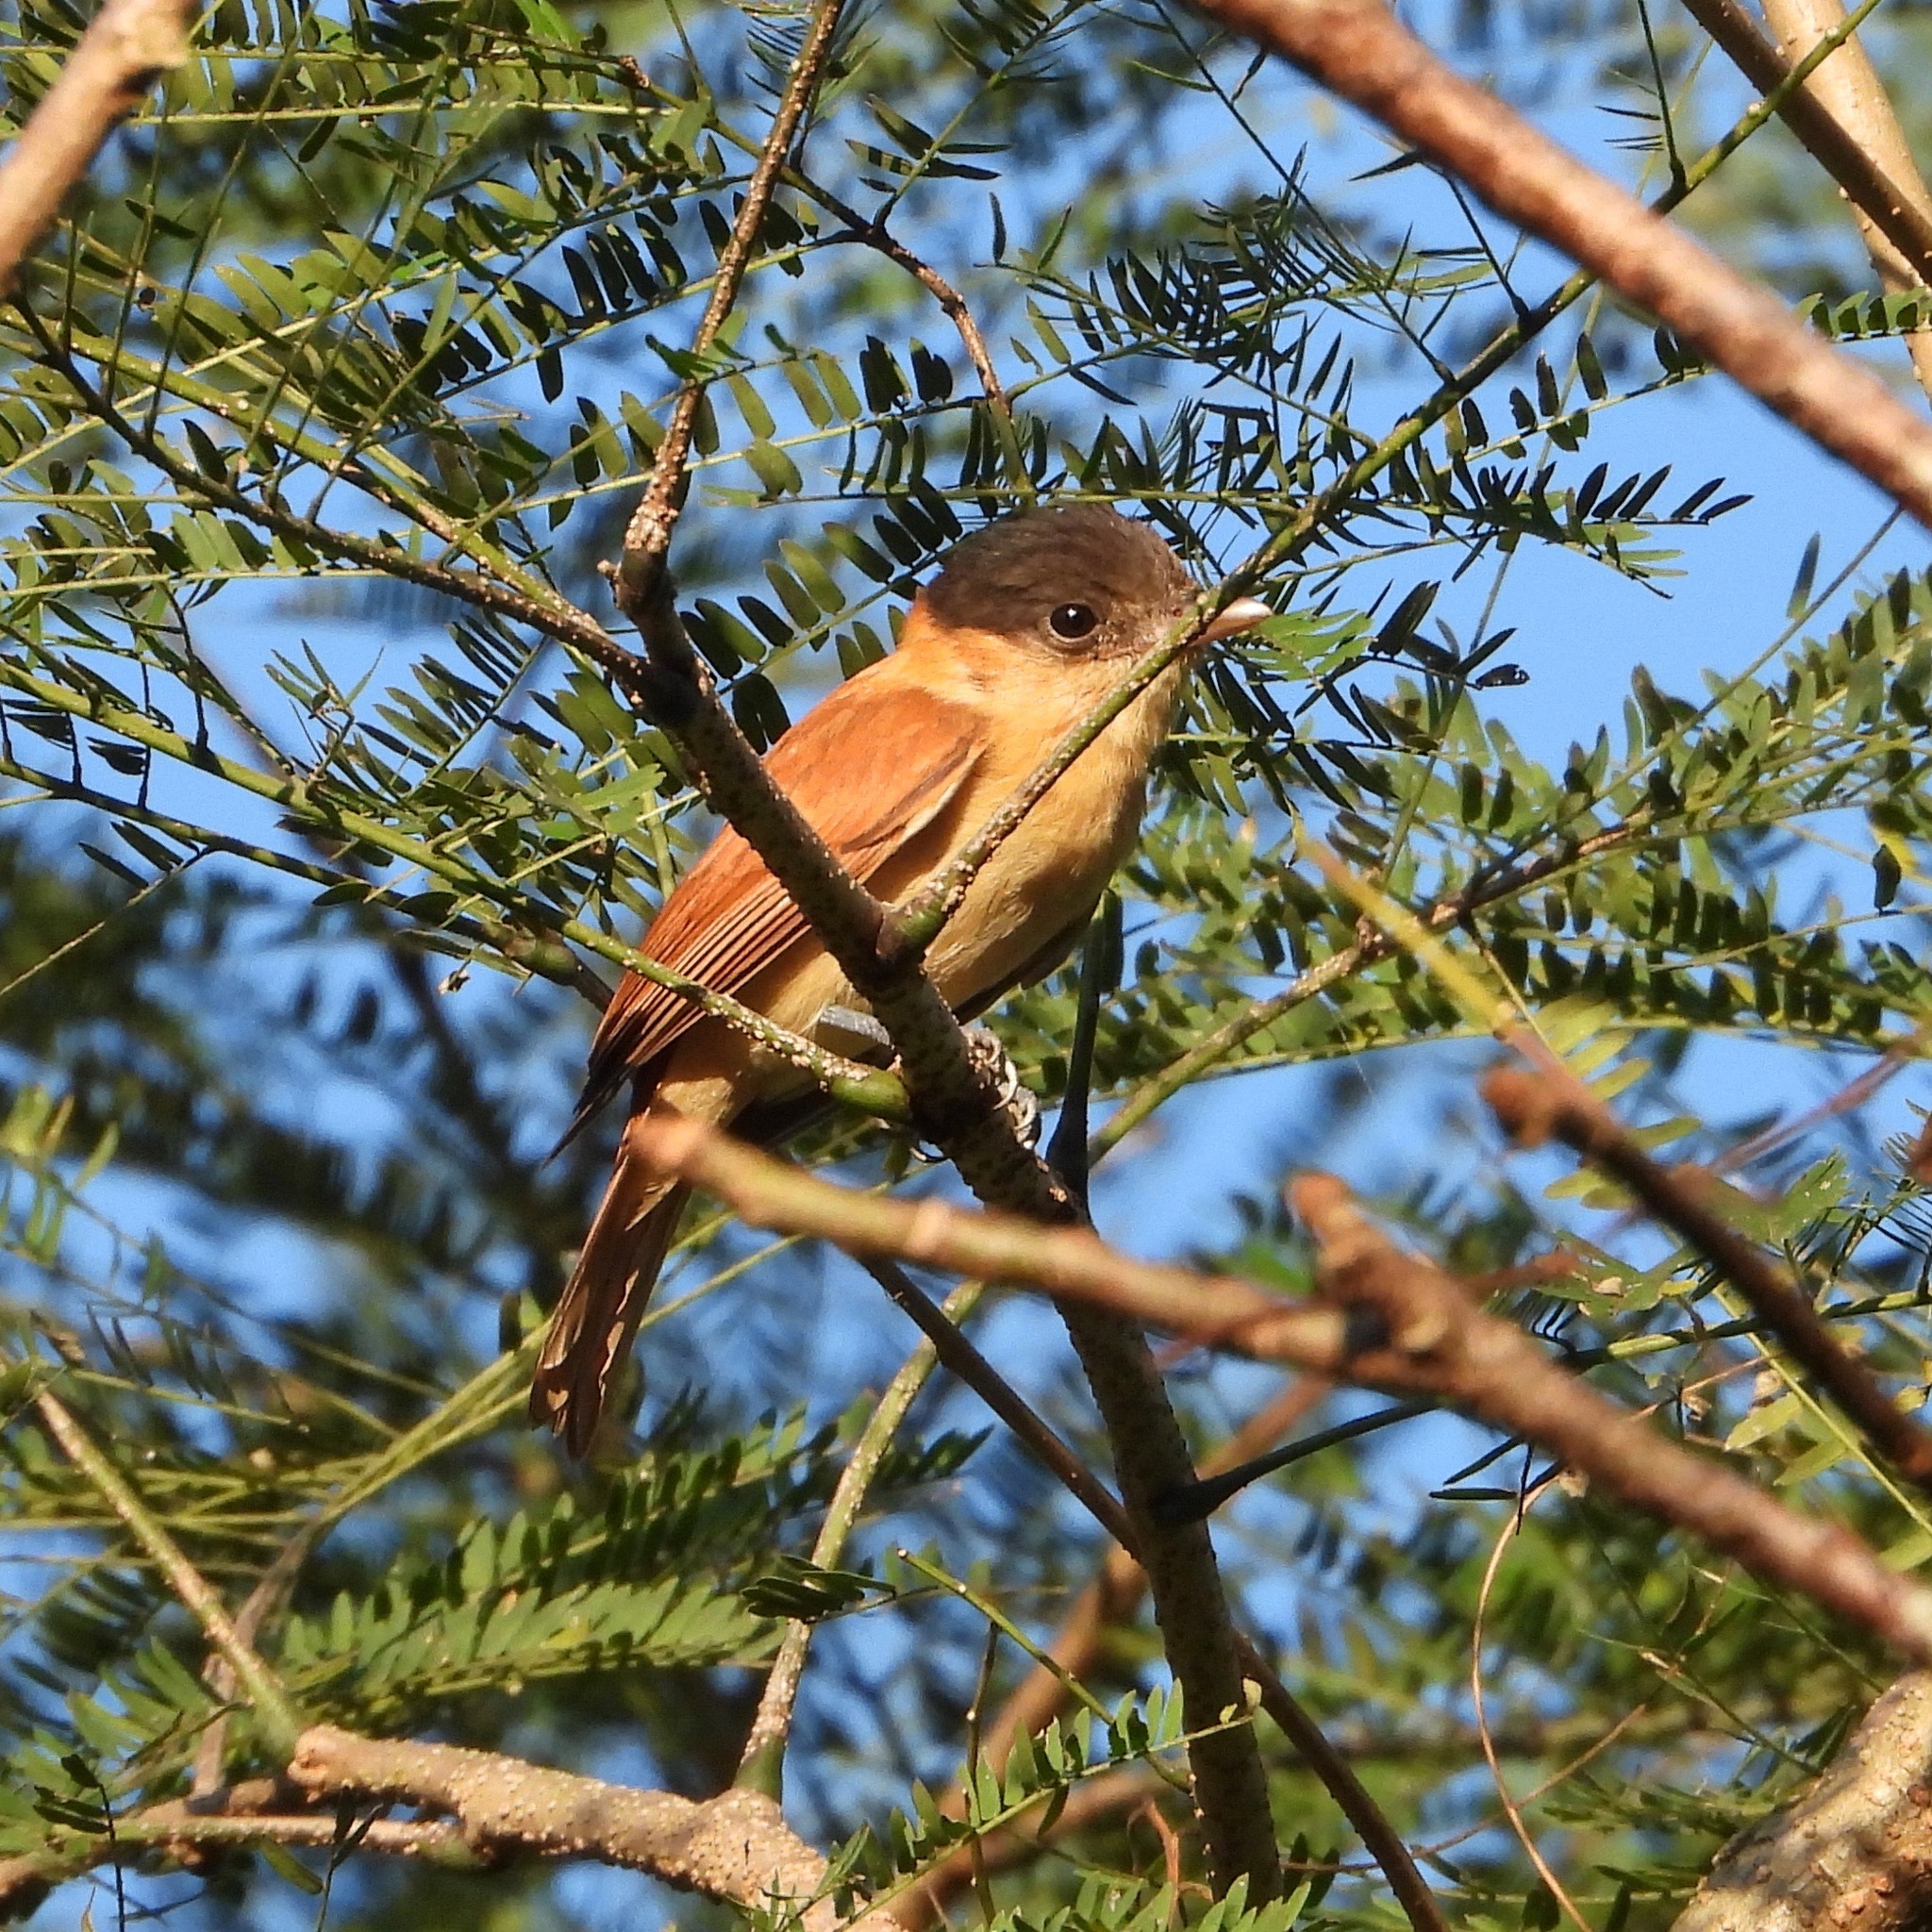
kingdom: Animalia
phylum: Chordata
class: Aves
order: Passeriformes
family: Cotingidae
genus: Pachyramphus
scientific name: Pachyramphus aglaiae
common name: Rose-throated becard
